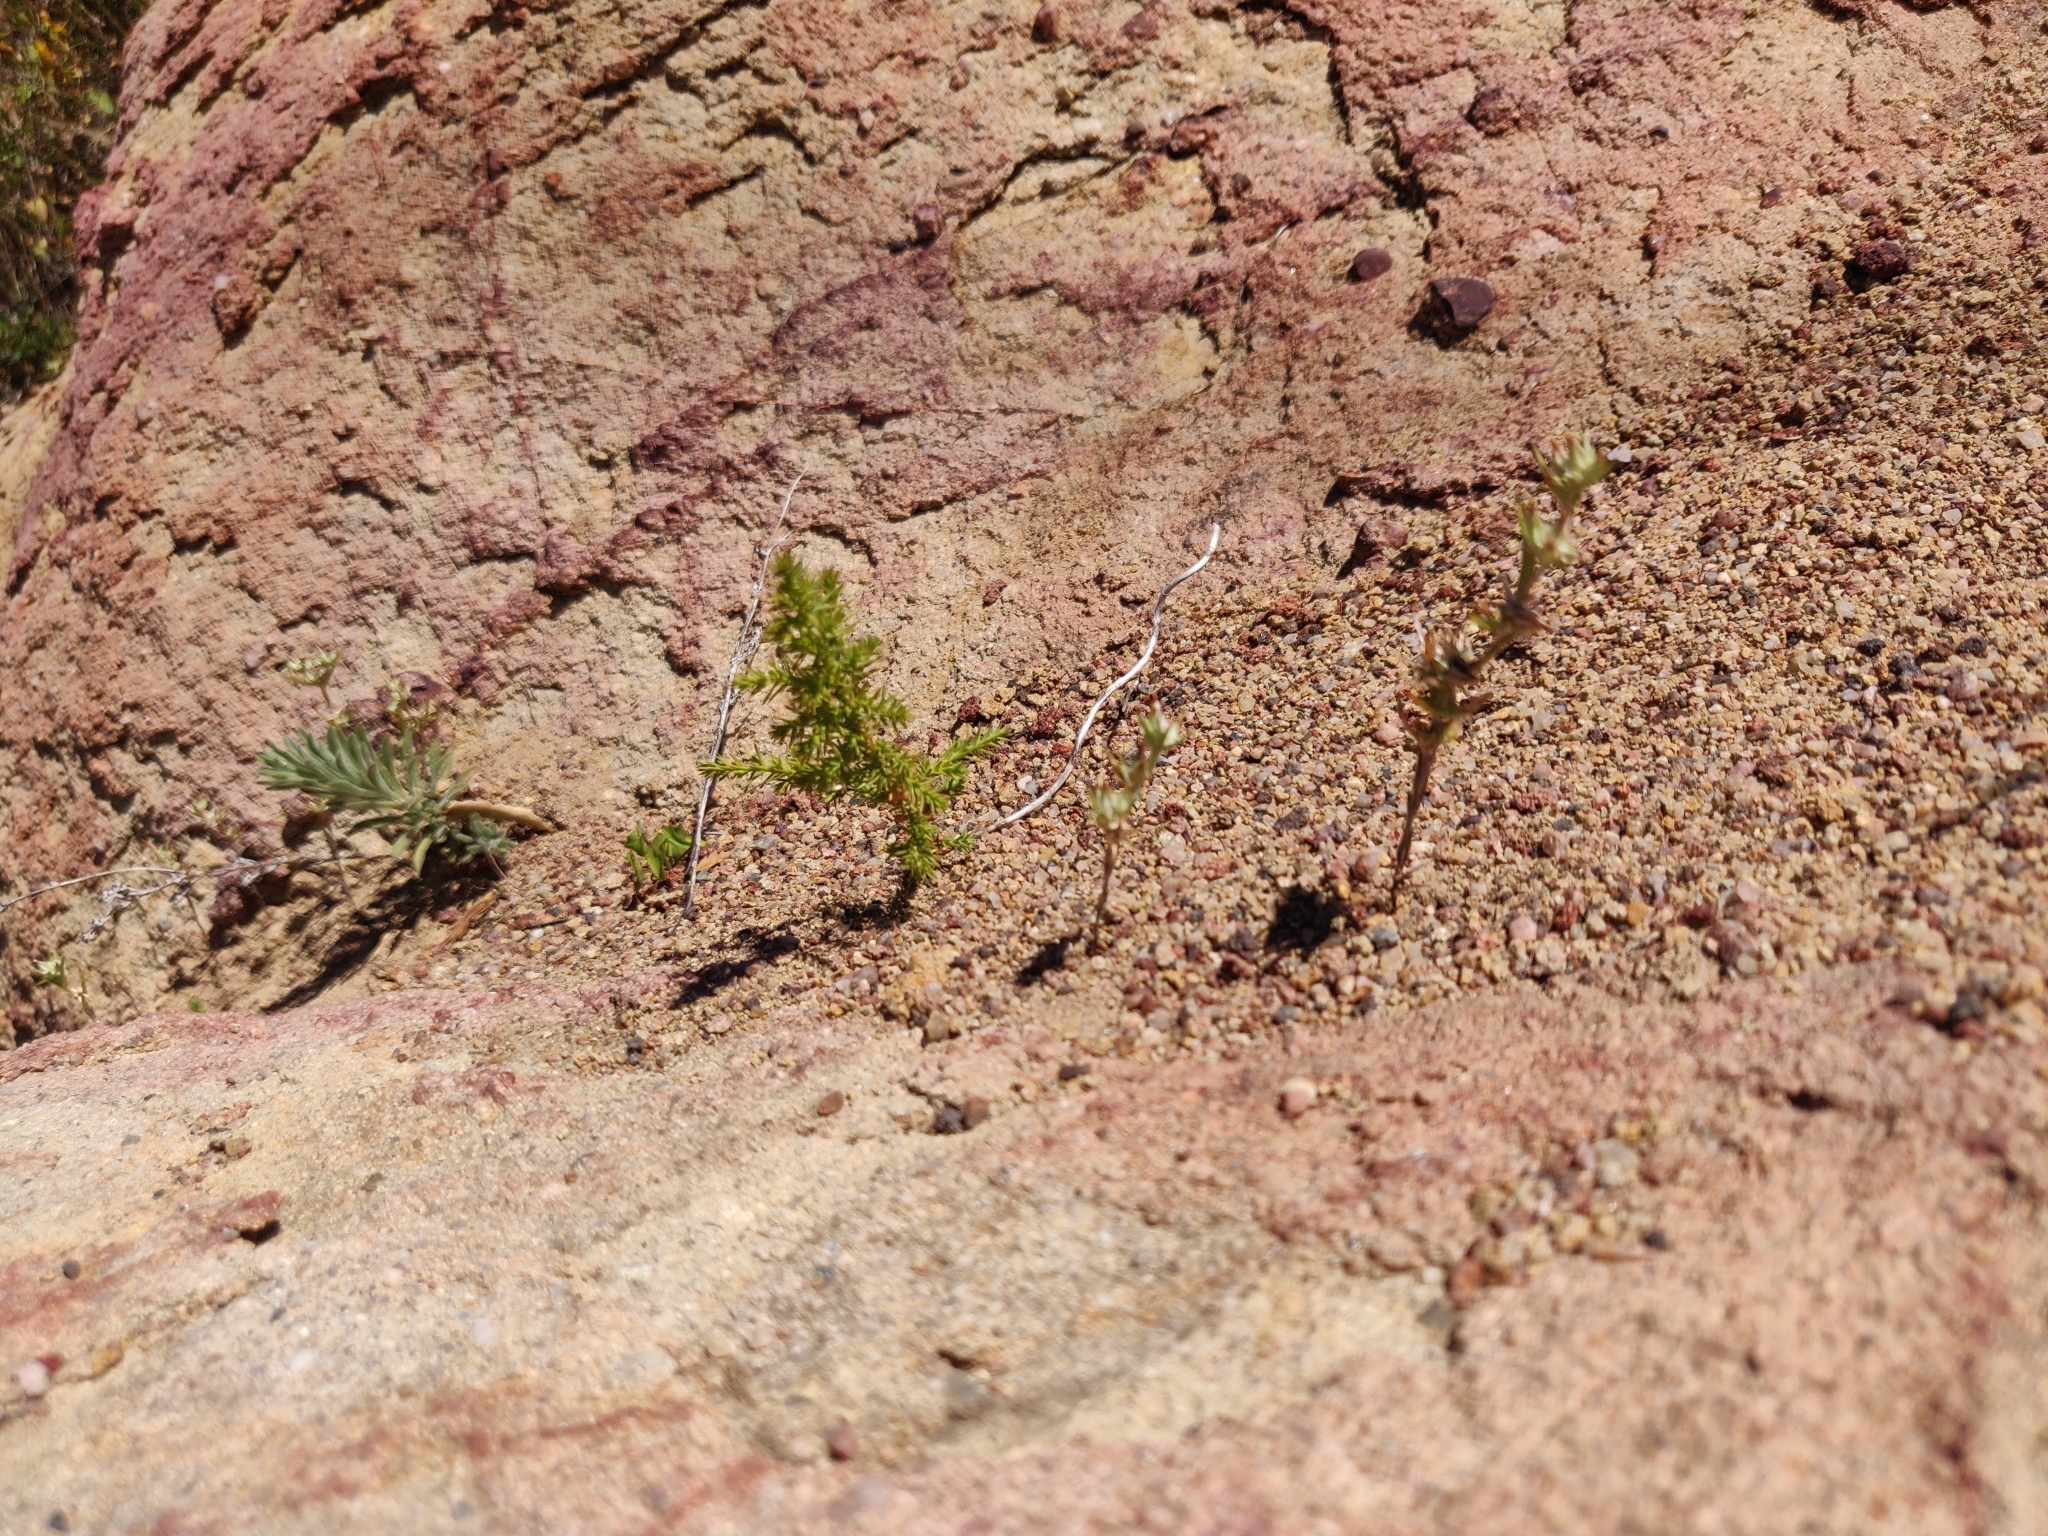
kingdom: Plantae
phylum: Tracheophyta
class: Pinopsida
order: Pinales
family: Cupressaceae
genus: Cupressus
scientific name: Cupressus goveniana
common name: Gowen cypress
